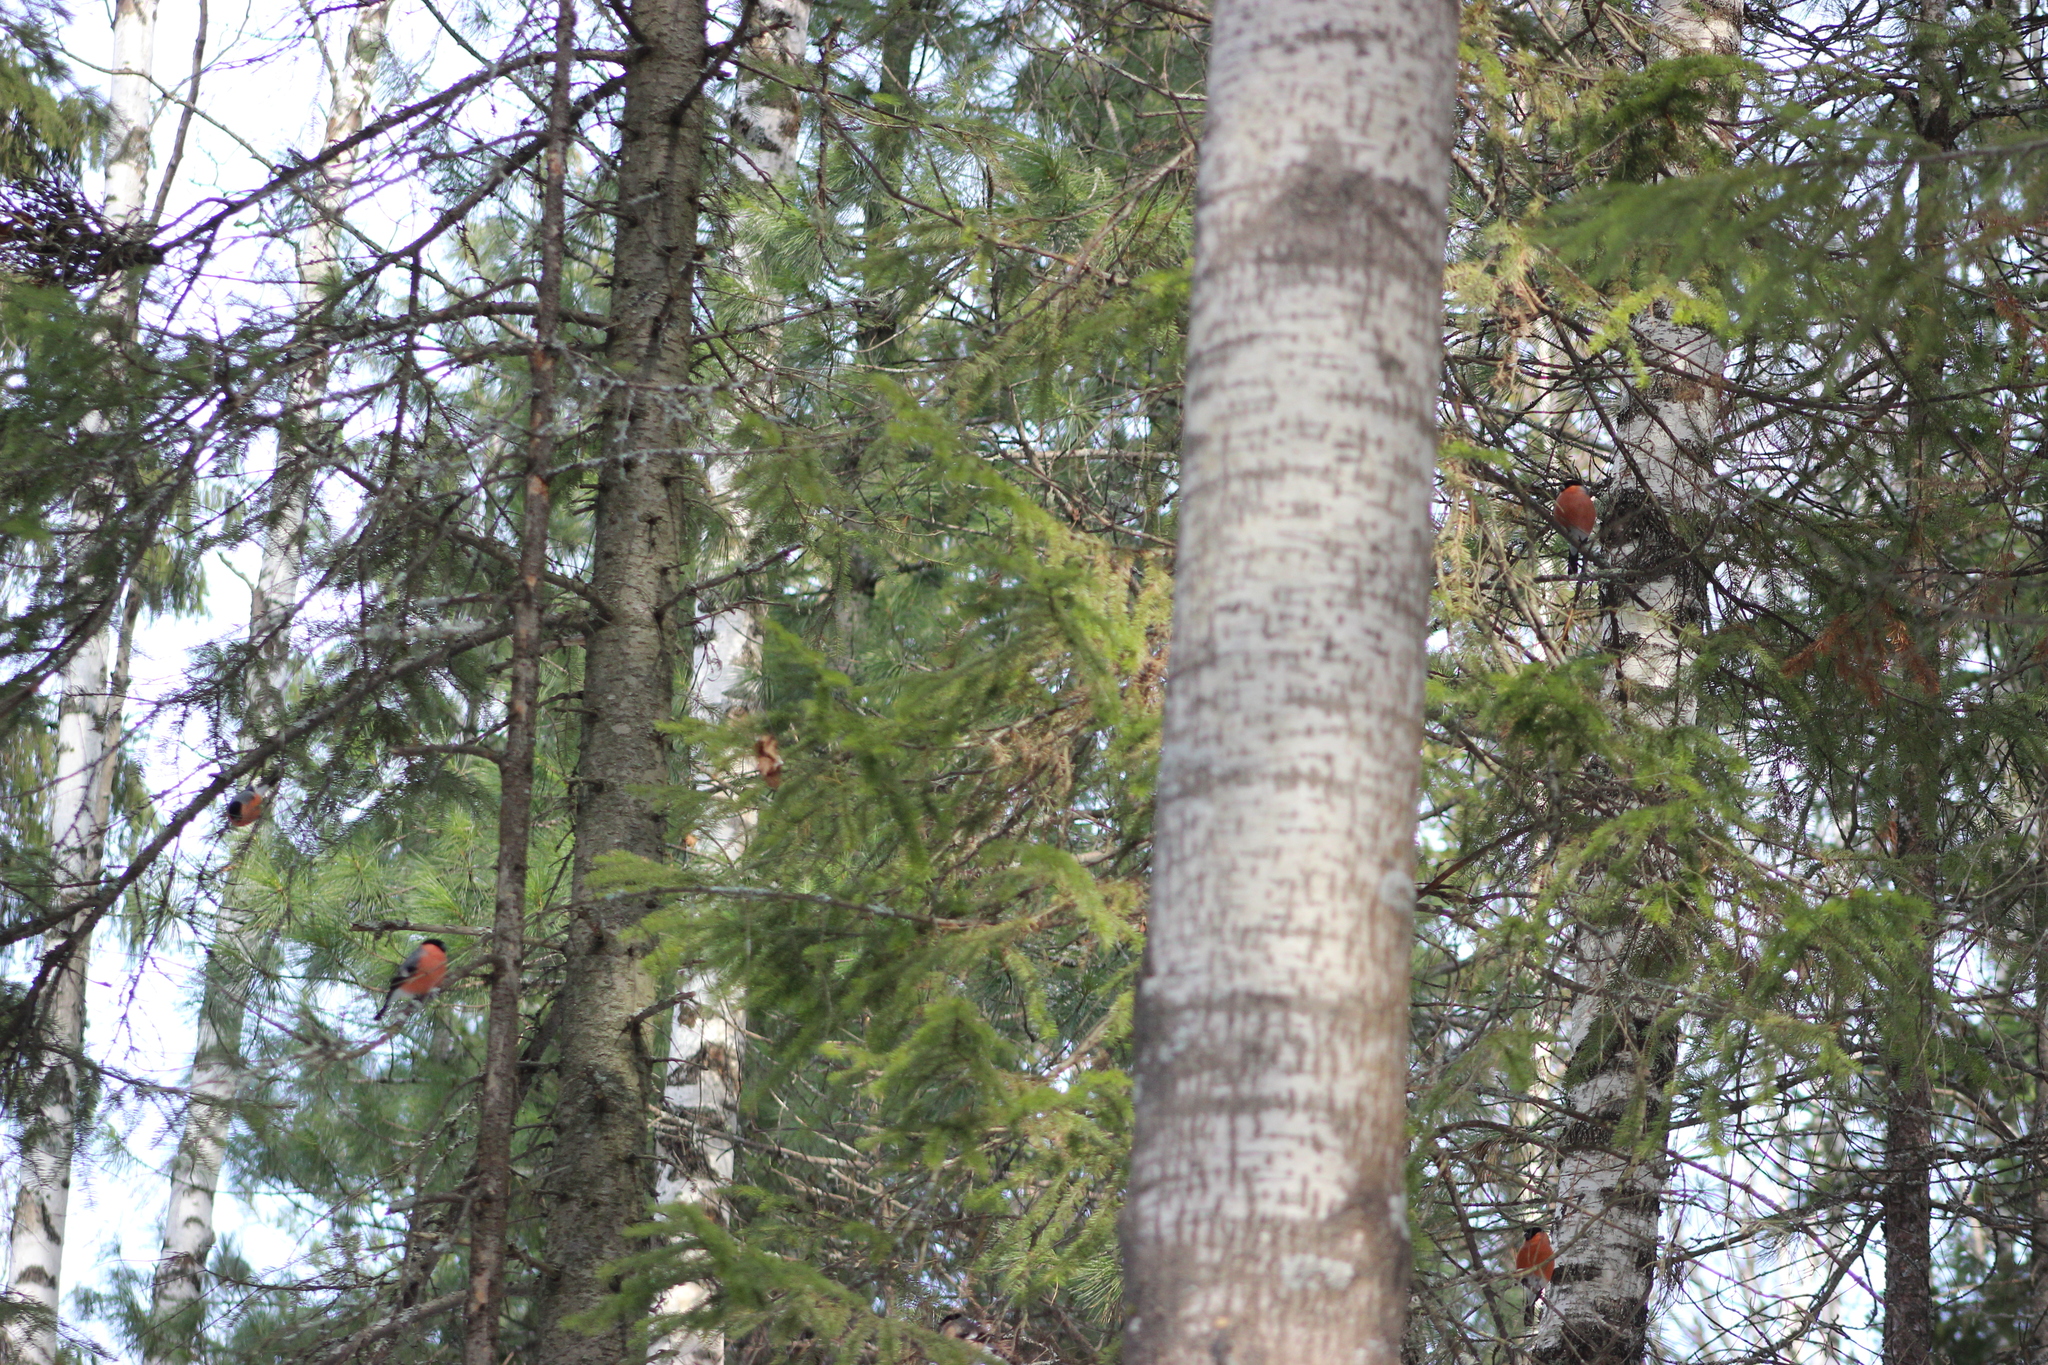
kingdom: Animalia
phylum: Chordata
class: Aves
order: Passeriformes
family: Fringillidae
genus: Pyrrhula
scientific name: Pyrrhula pyrrhula
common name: Eurasian bullfinch
